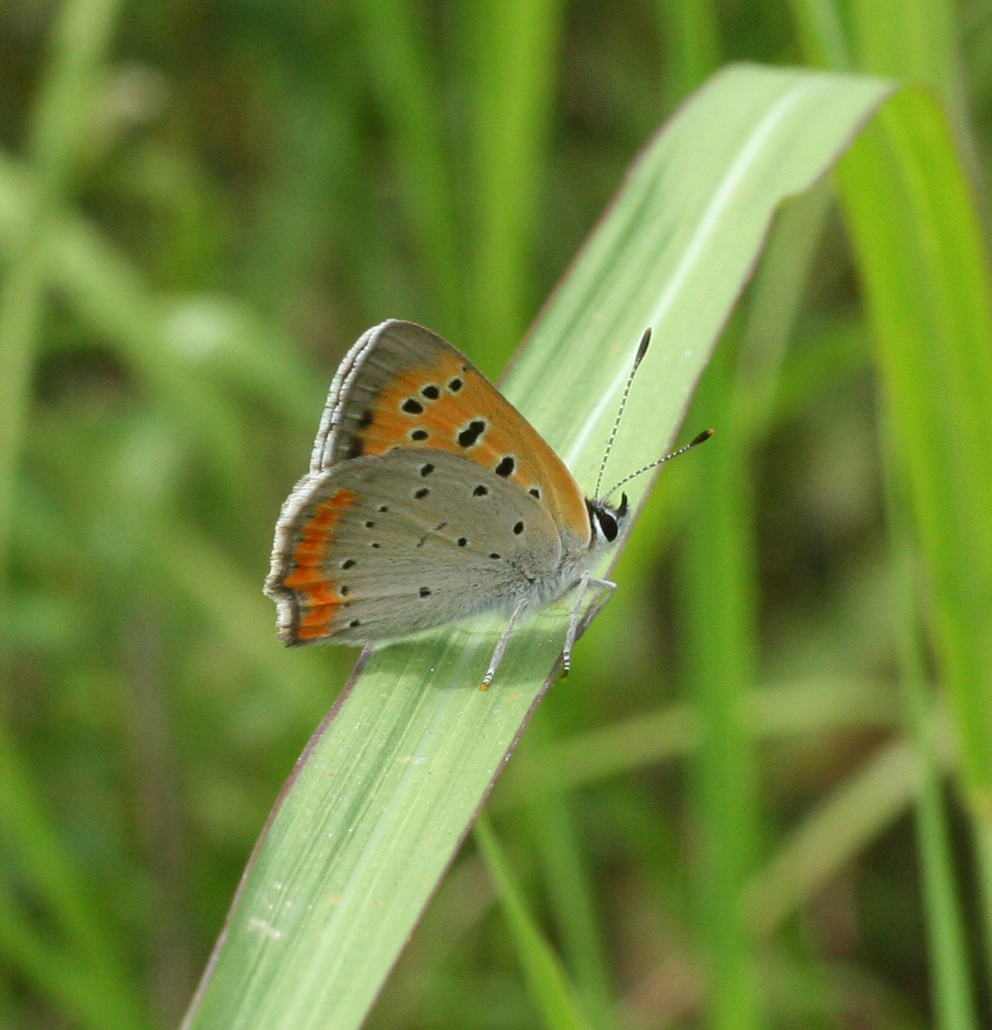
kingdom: Animalia
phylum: Arthropoda
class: Insecta
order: Lepidoptera
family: Lycaenidae
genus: Lycaena
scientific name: Lycaena phlaeas
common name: Small copper
